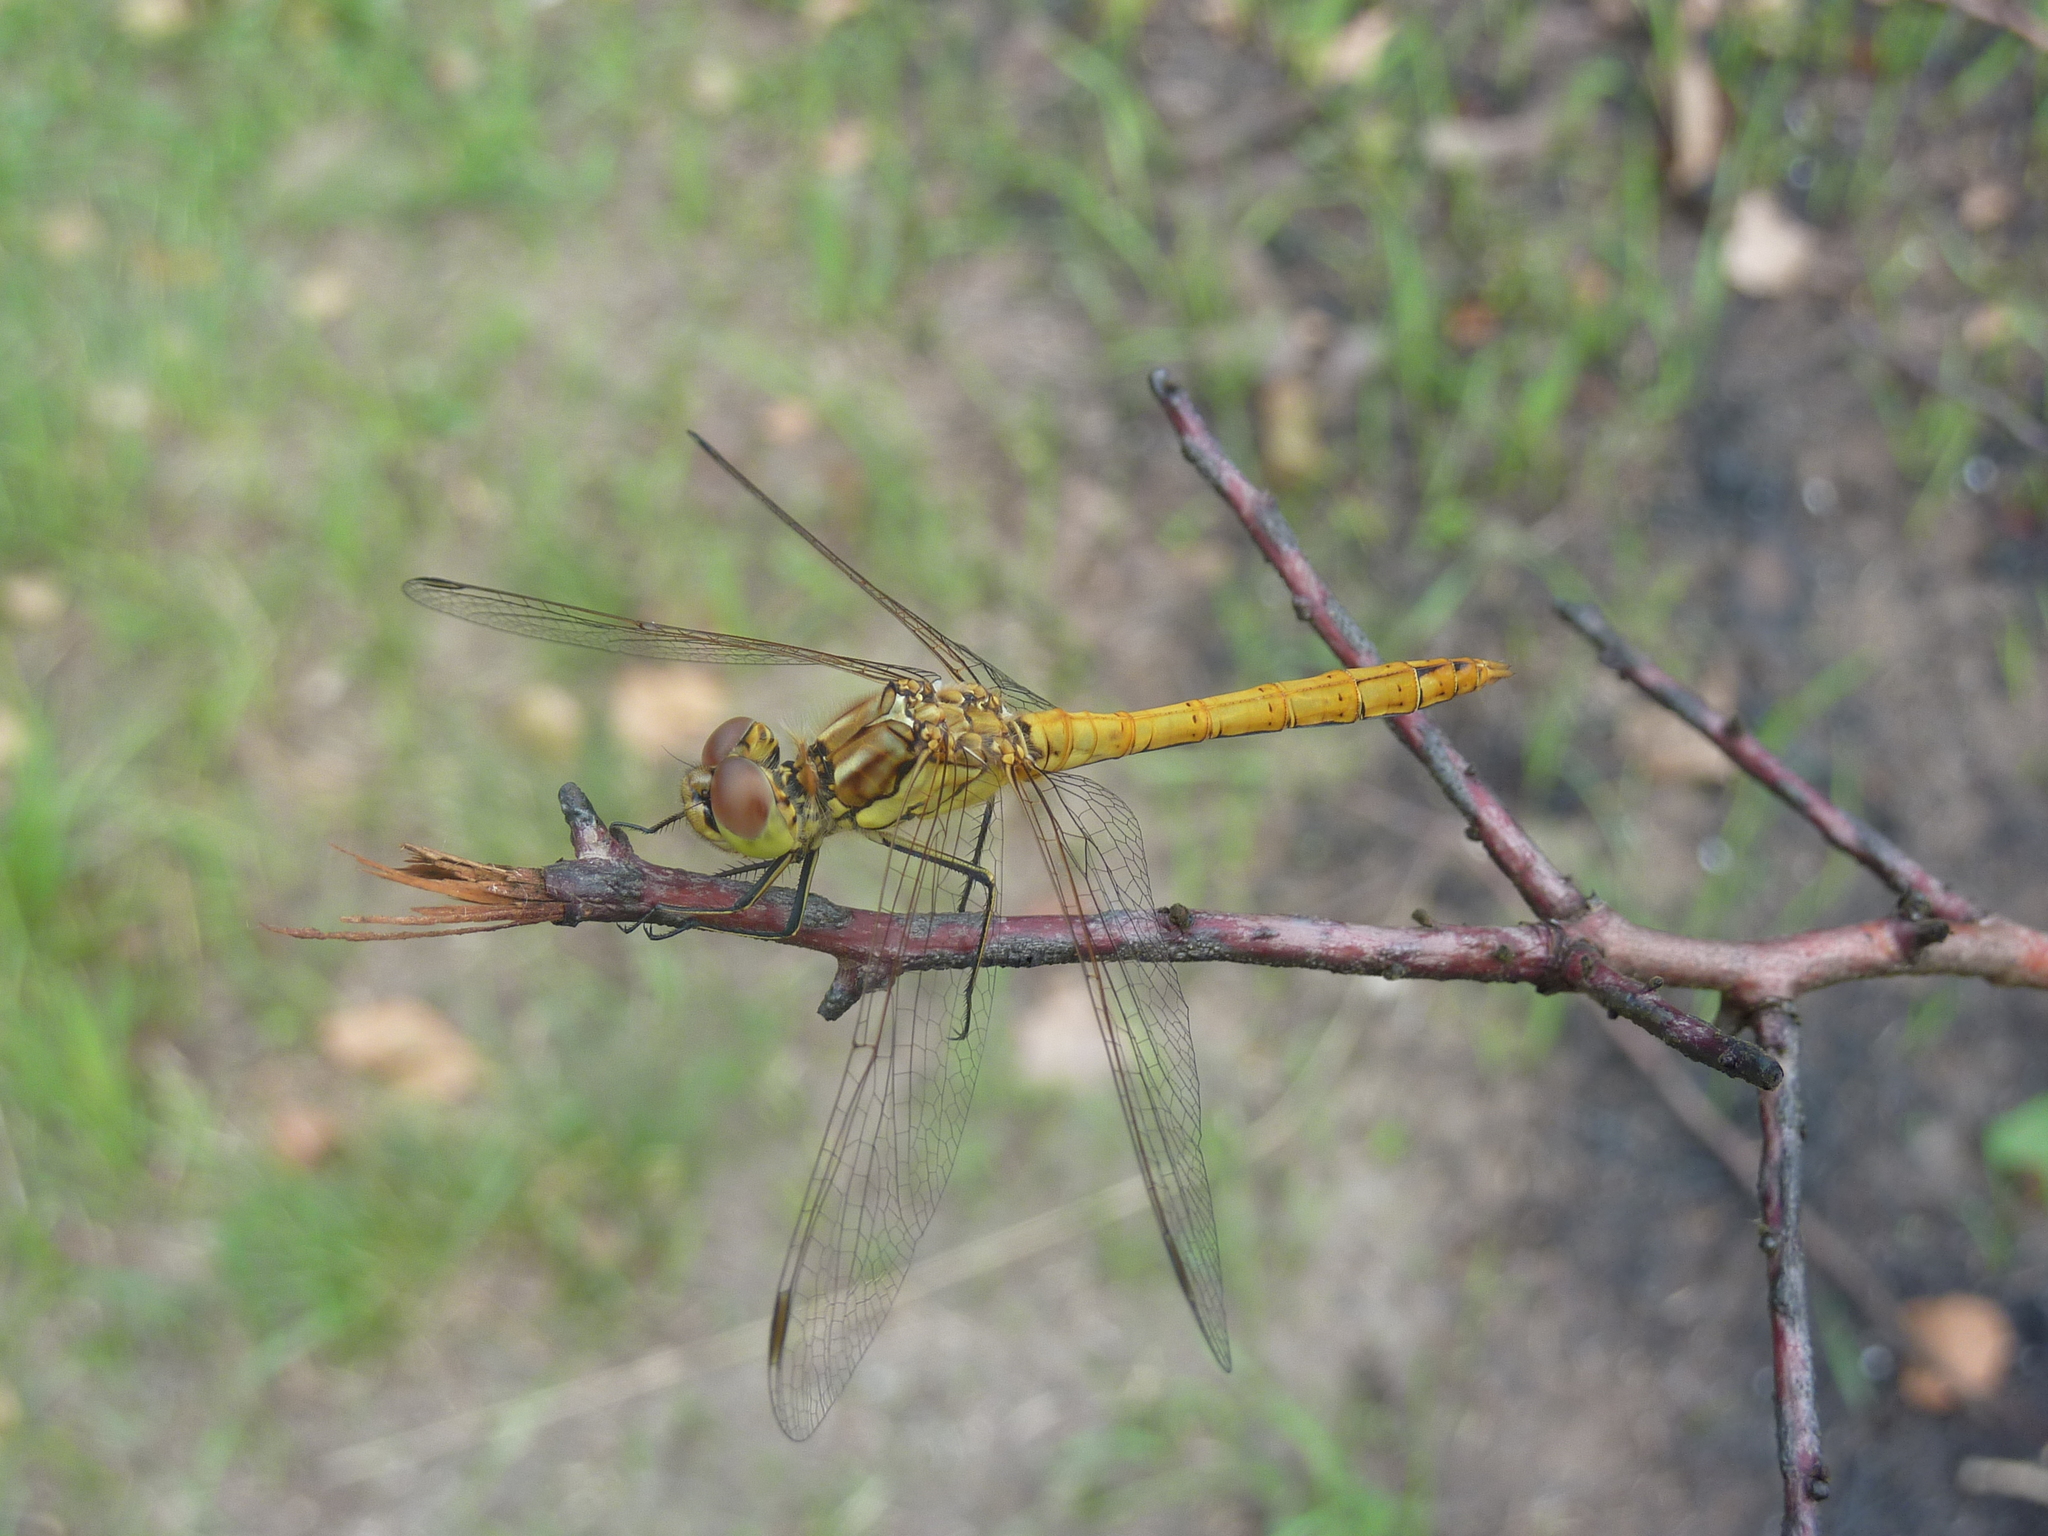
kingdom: Animalia
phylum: Arthropoda
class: Insecta
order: Odonata
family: Libellulidae
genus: Sympetrum
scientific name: Sympetrum vulgatum
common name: Vagrant darter
